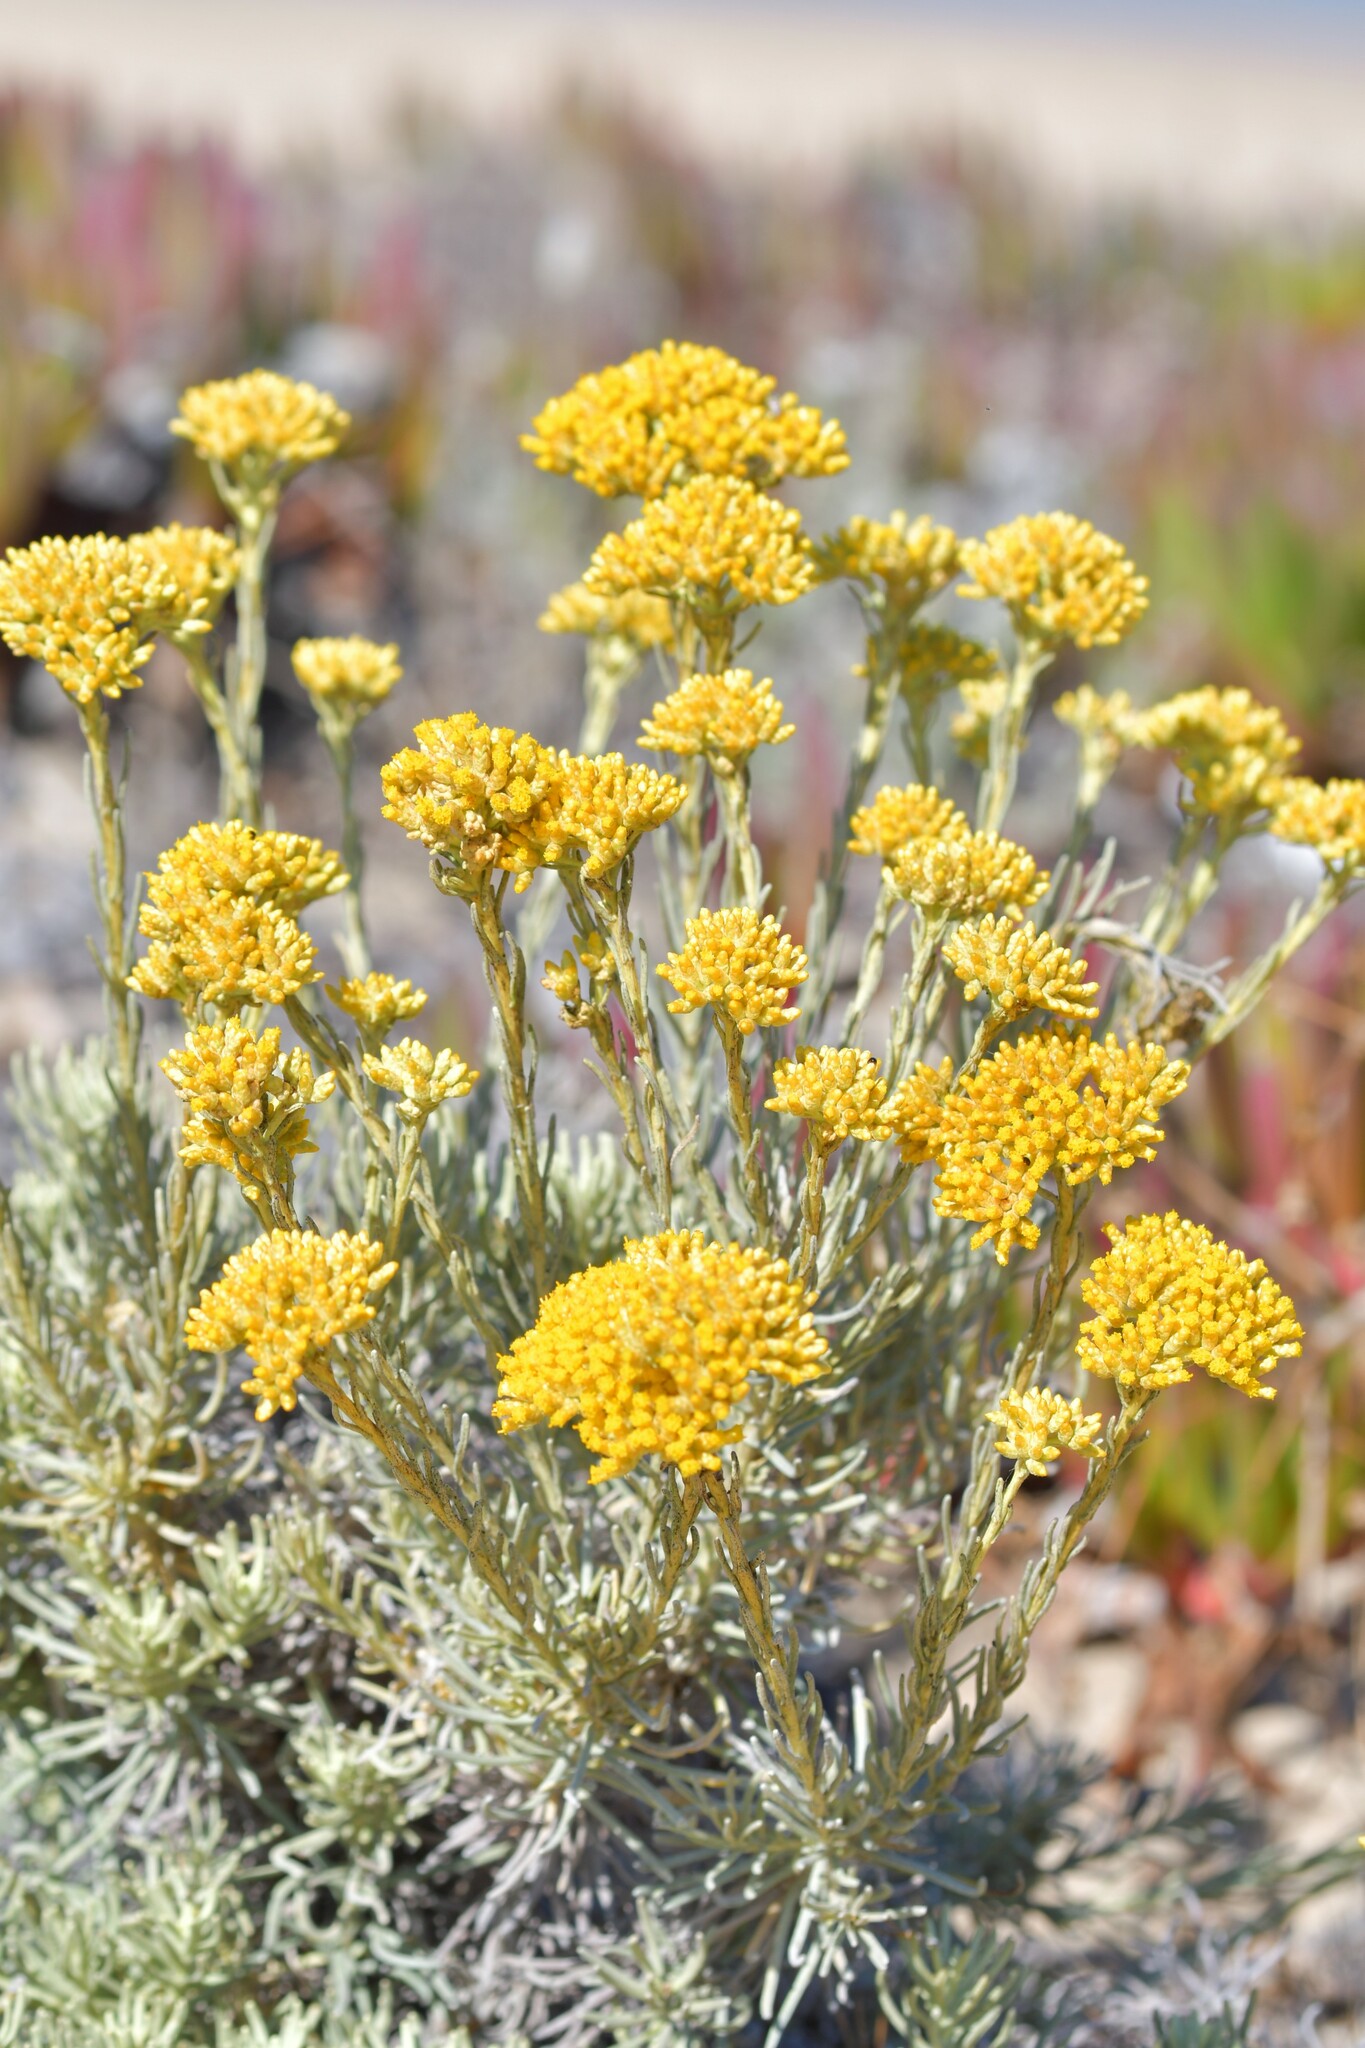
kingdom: Plantae
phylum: Tracheophyta
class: Magnoliopsida
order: Asterales
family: Asteraceae
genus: Helichrysum
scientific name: Helichrysum serotinum
